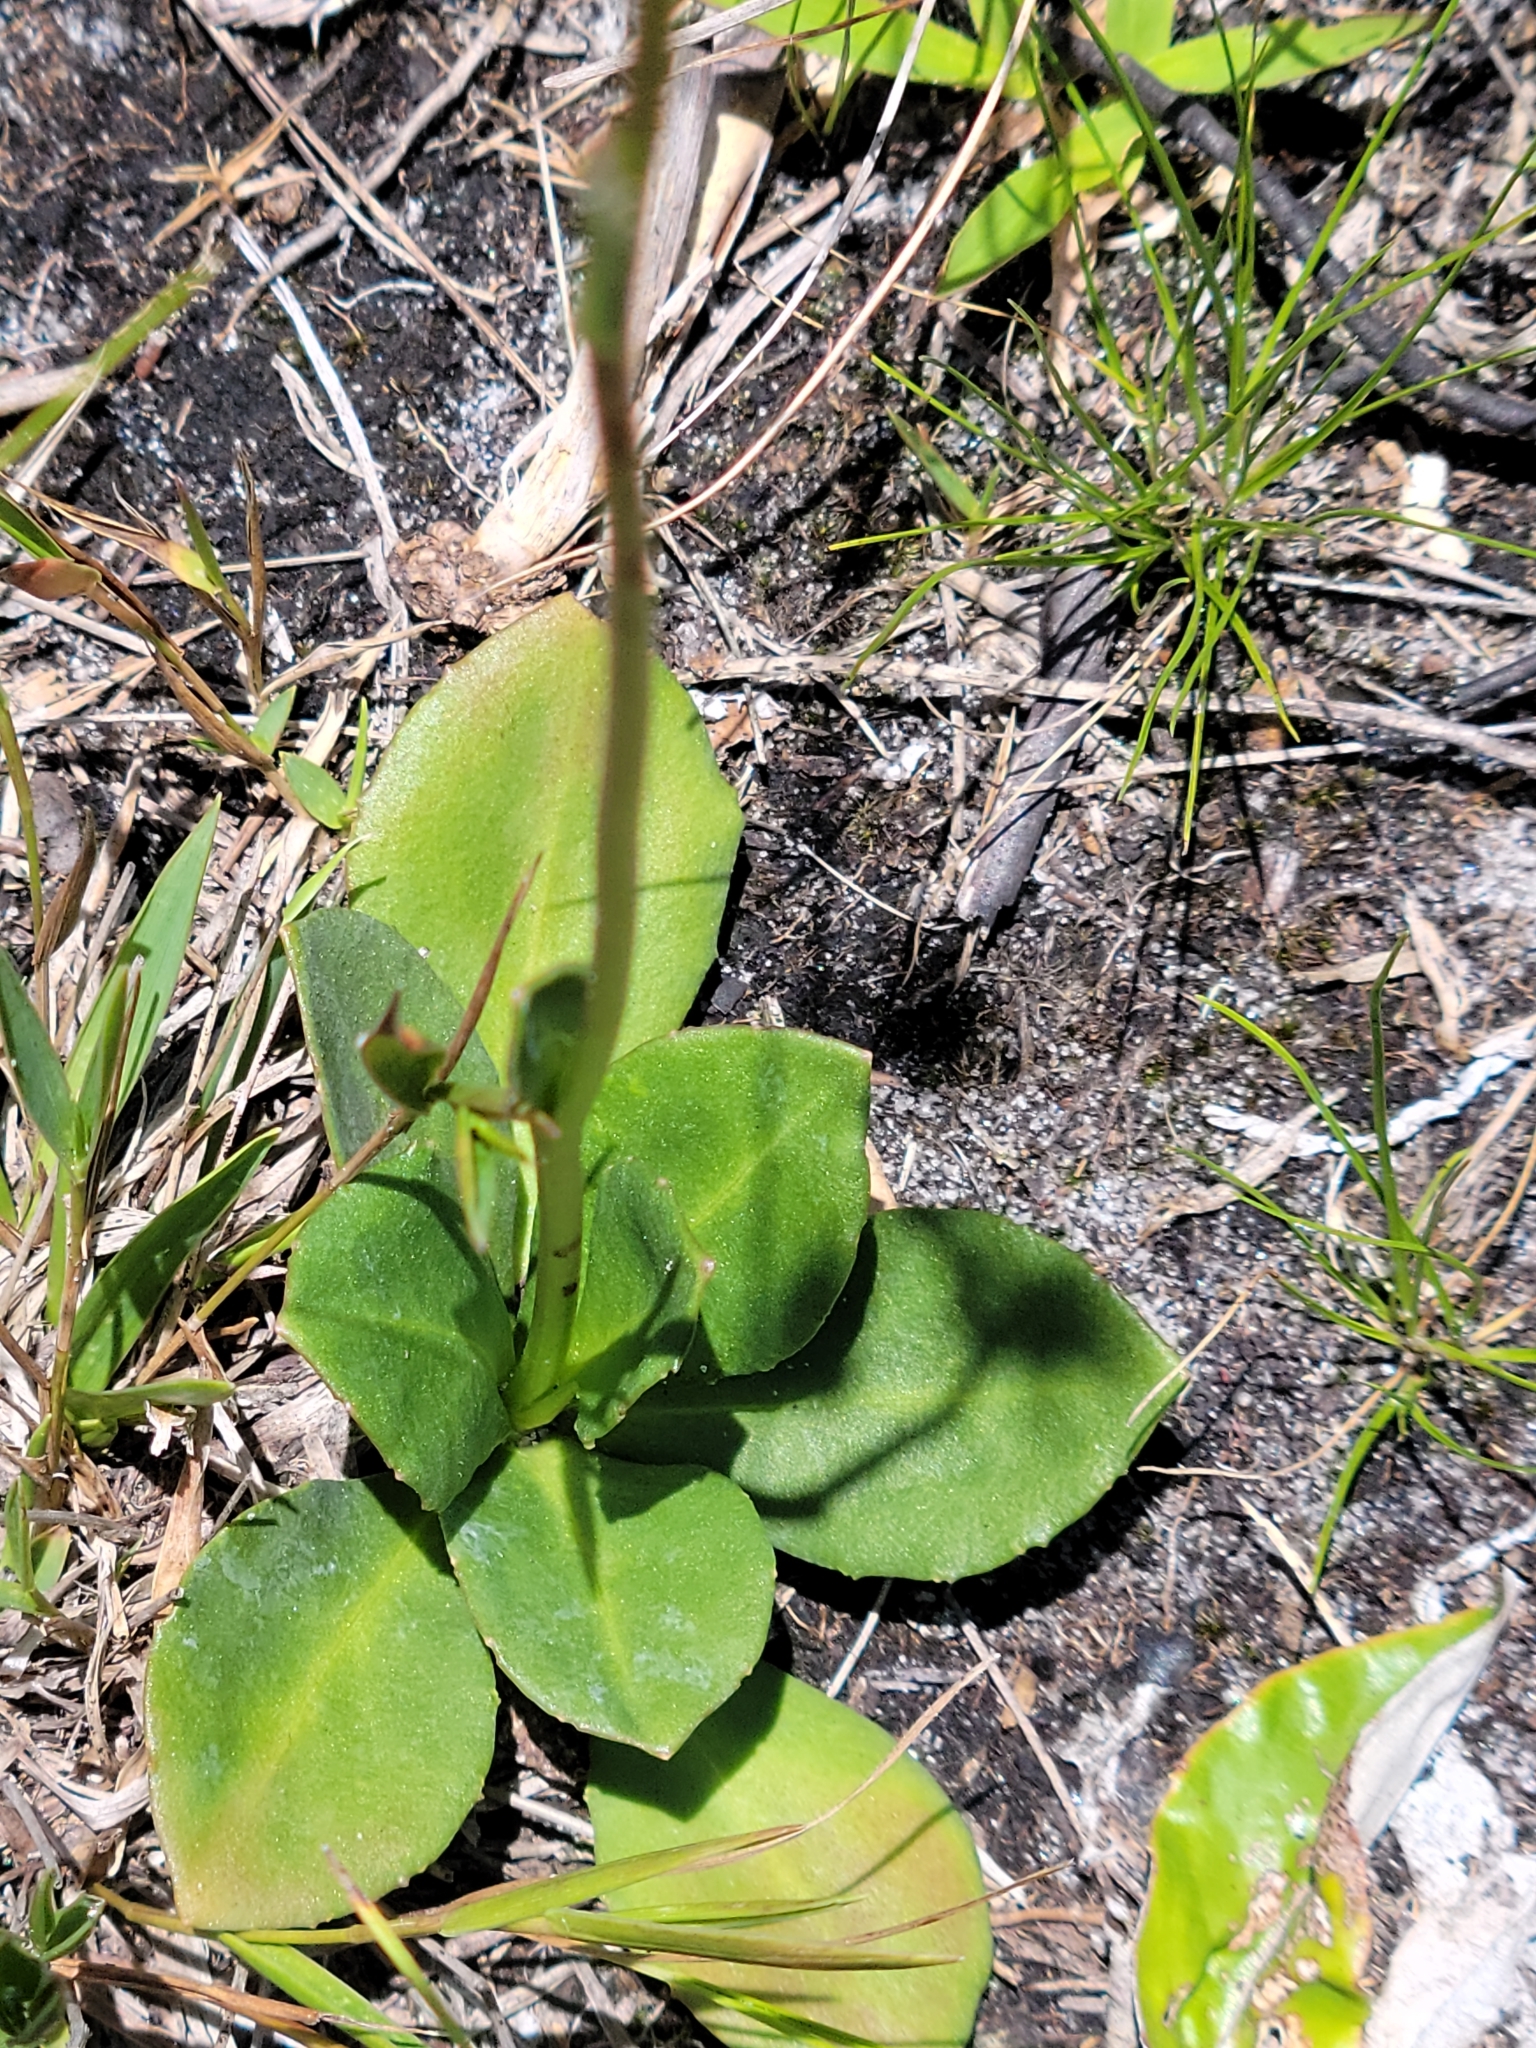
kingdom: Plantae
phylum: Tracheophyta
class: Magnoliopsida
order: Asterales
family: Asteraceae
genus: Erigeron
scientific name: Erigeron vernus
